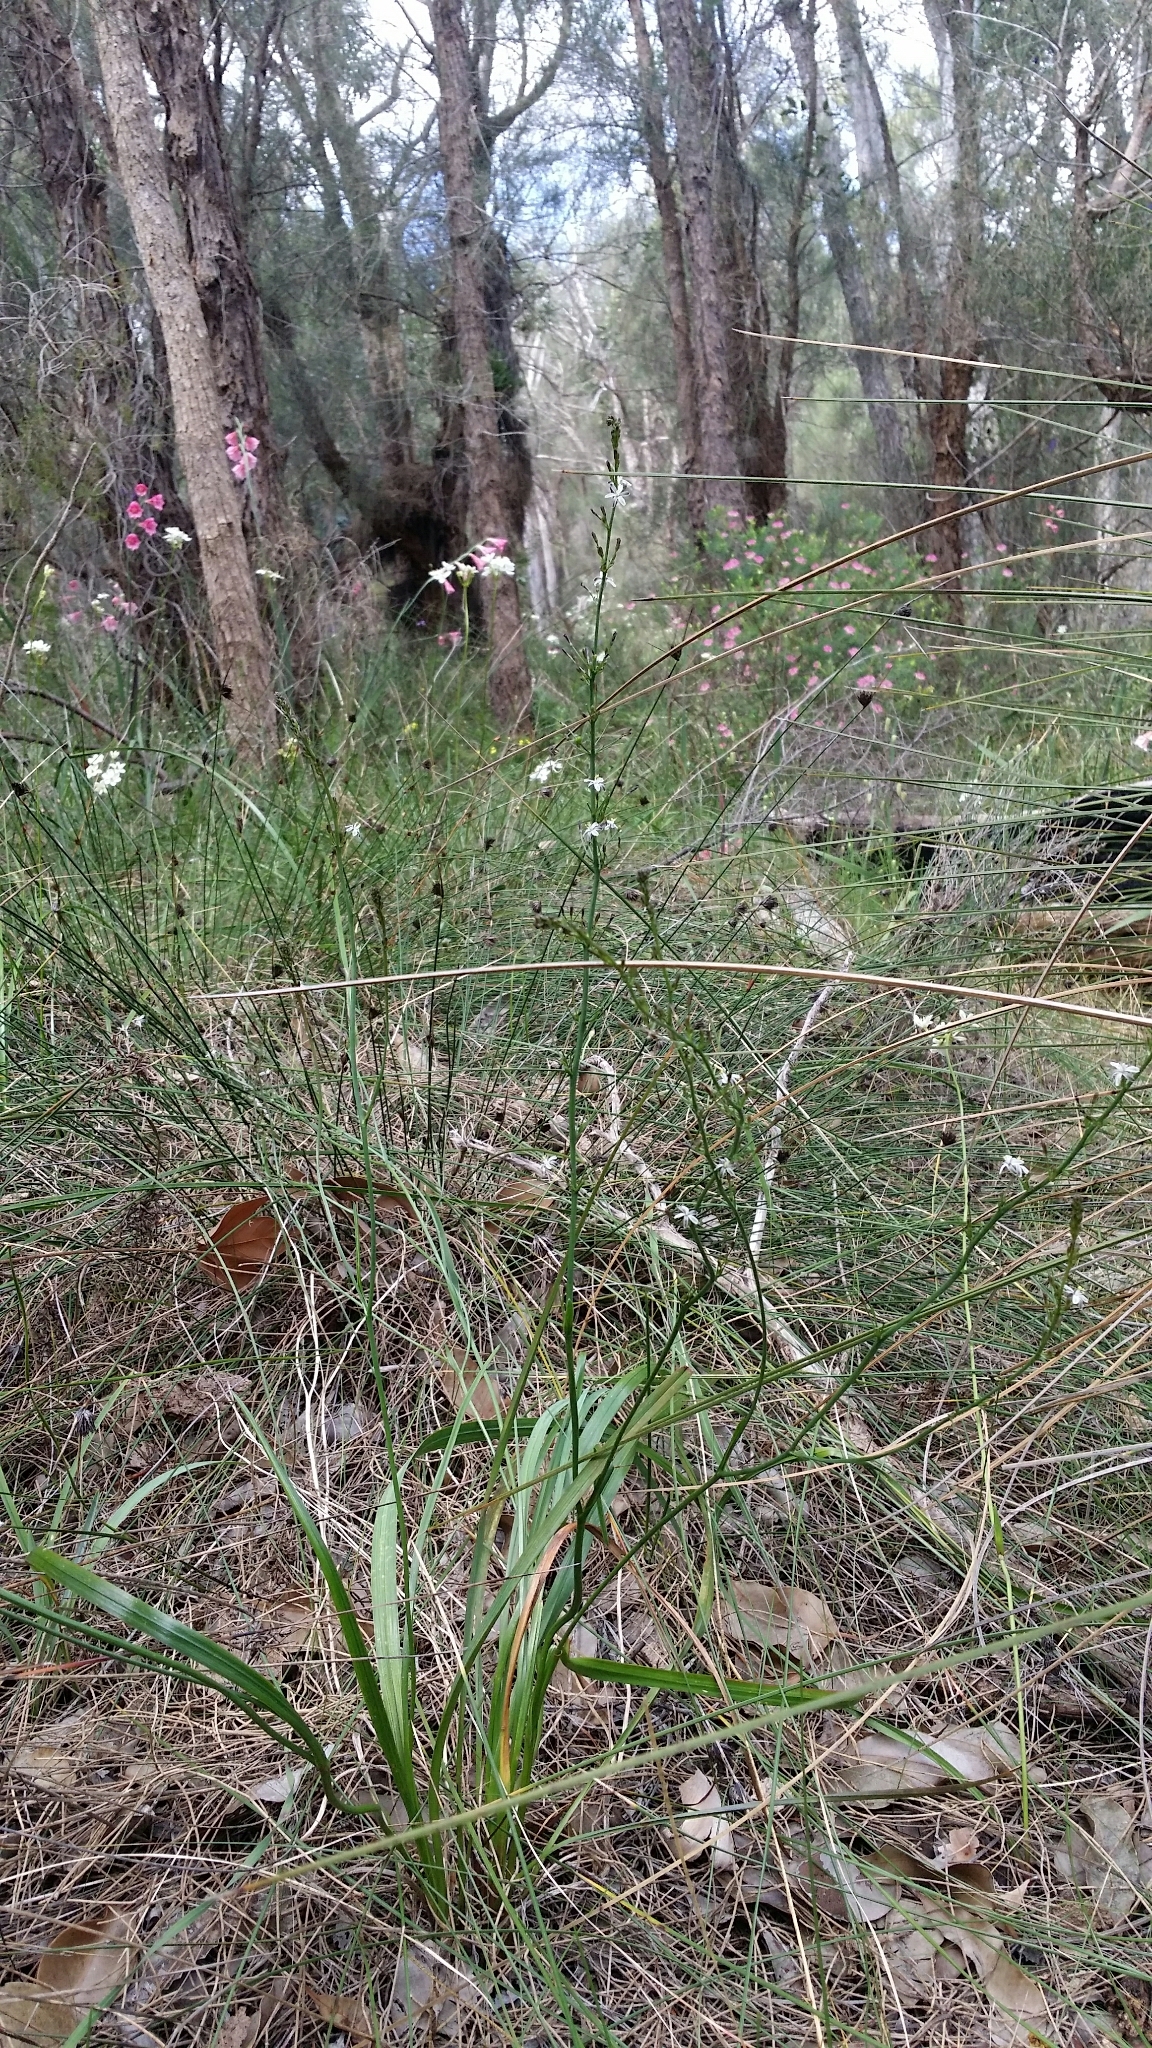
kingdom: Plantae
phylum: Tracheophyta
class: Liliopsida
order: Asparagales
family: Asphodelaceae
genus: Caesia
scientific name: Caesia micrantha
